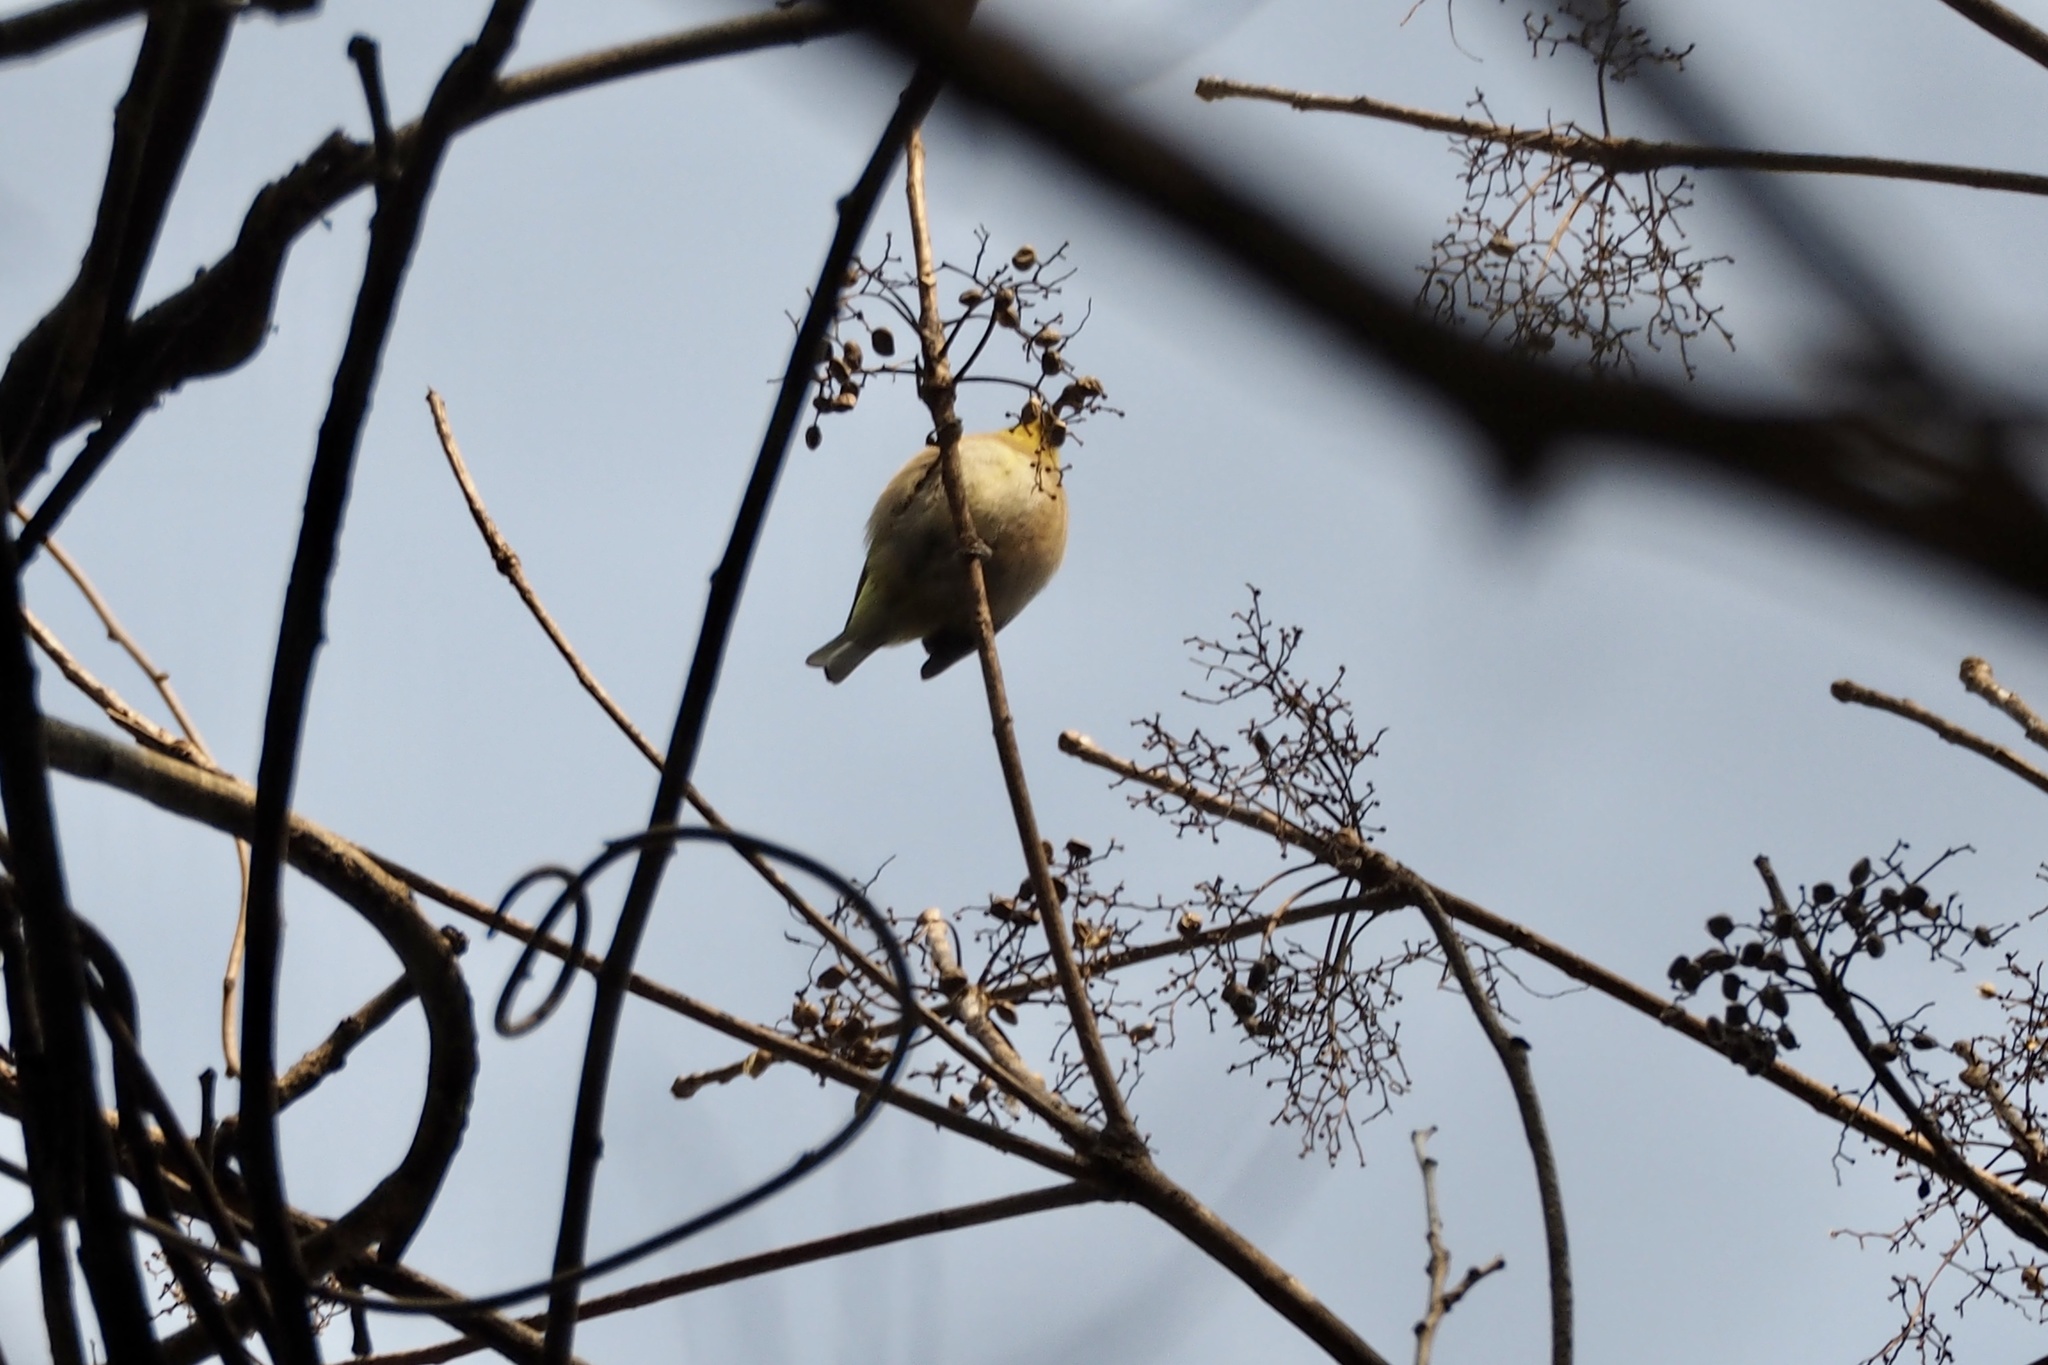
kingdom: Animalia
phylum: Chordata
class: Aves
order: Passeriformes
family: Zosteropidae
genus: Zosterops
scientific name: Zosterops japonicus
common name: Japanese white-eye
